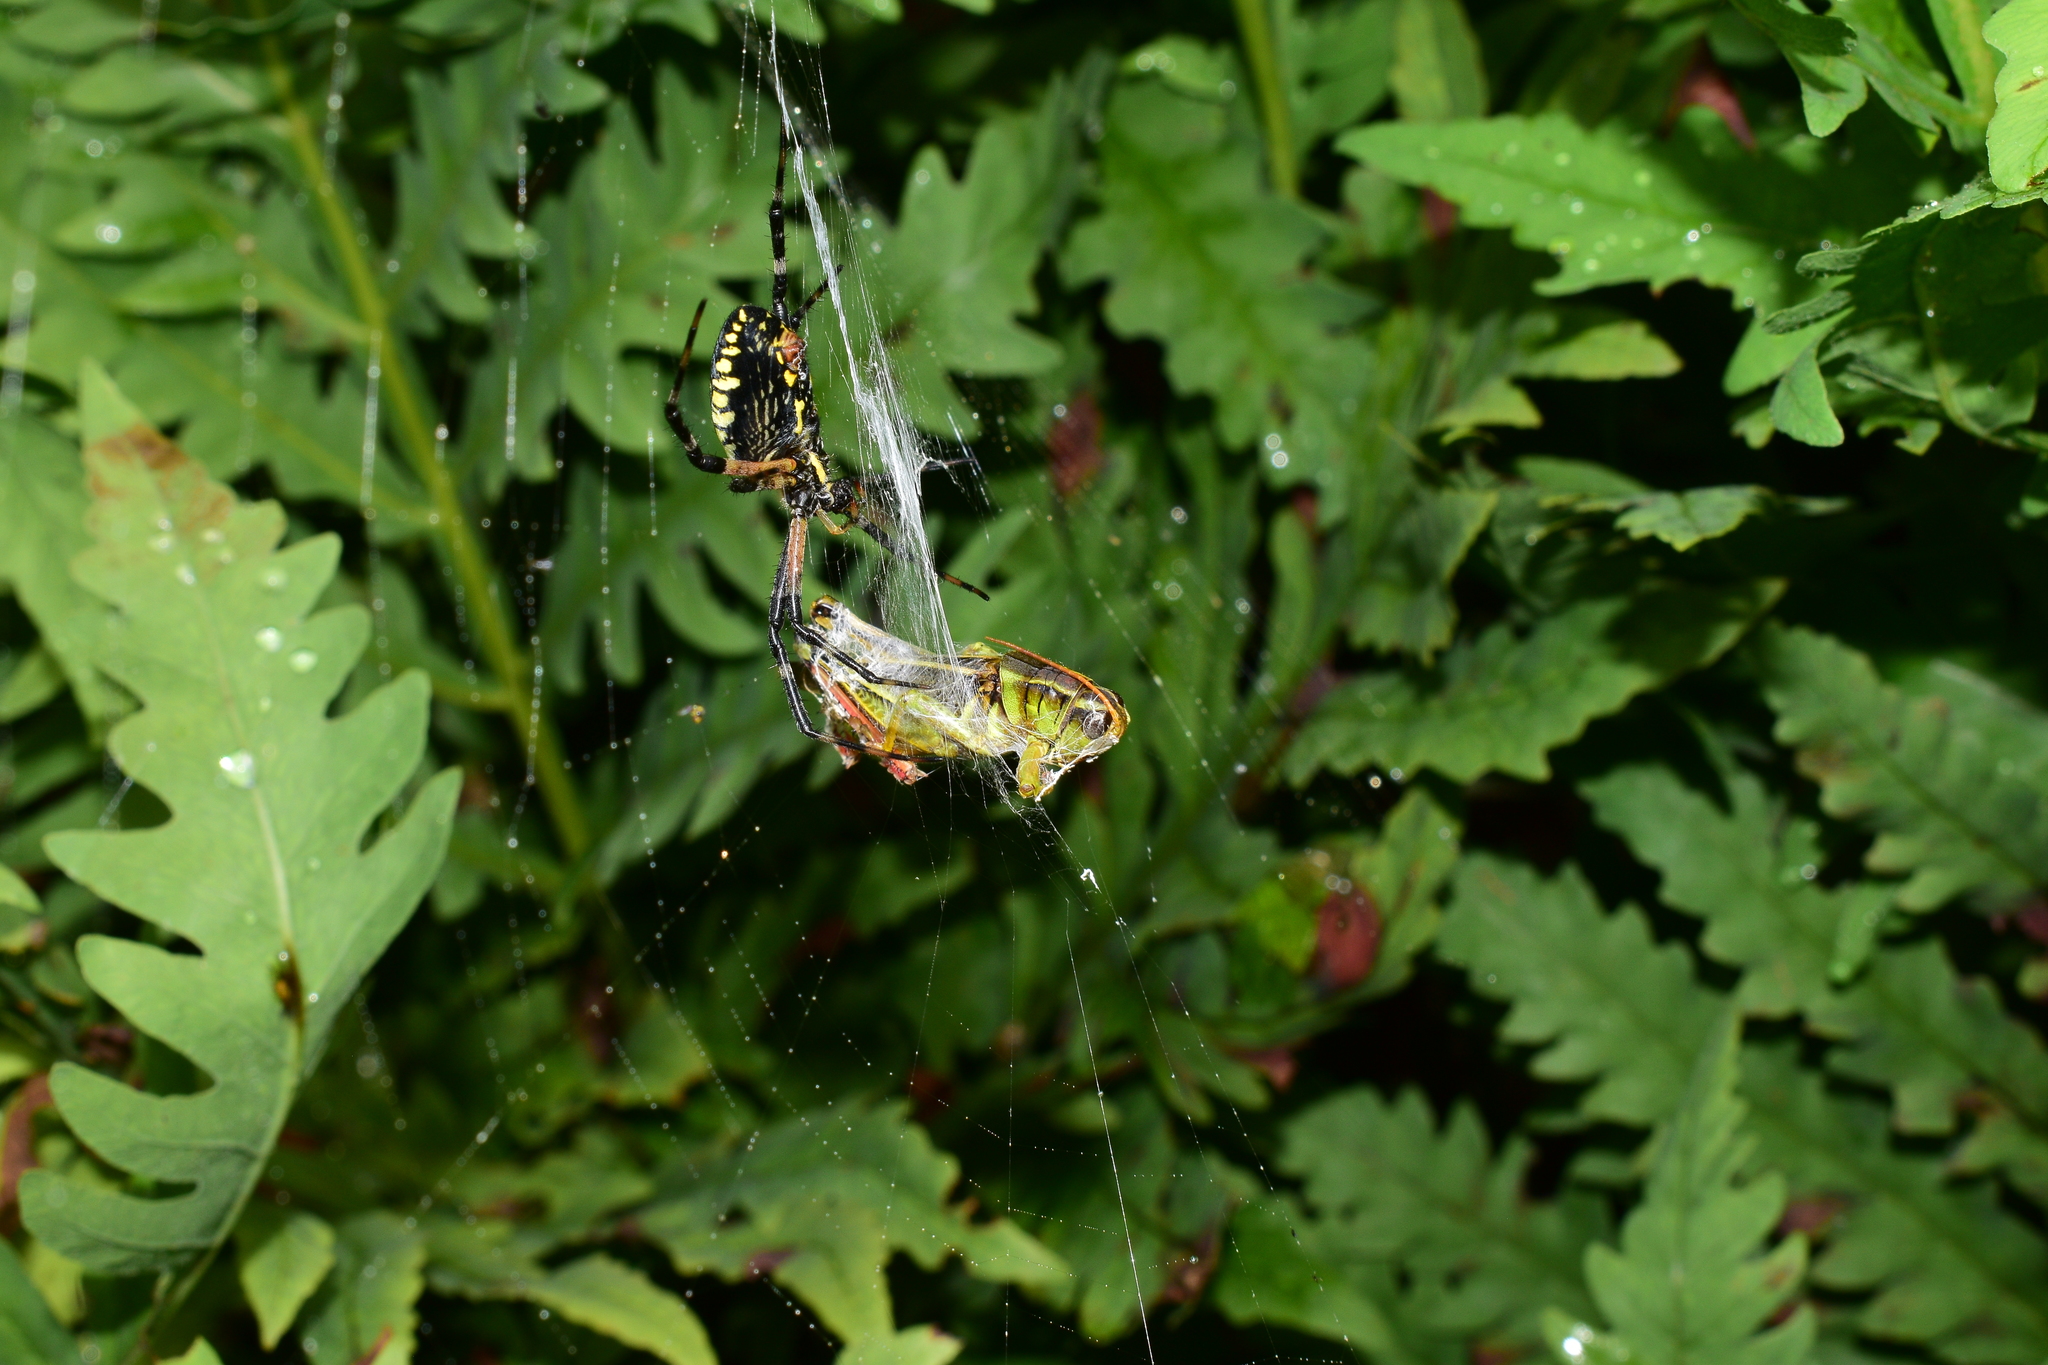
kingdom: Animalia
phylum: Arthropoda
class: Arachnida
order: Araneae
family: Araneidae
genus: Argiope
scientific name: Argiope aurantia
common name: Orb weavers
